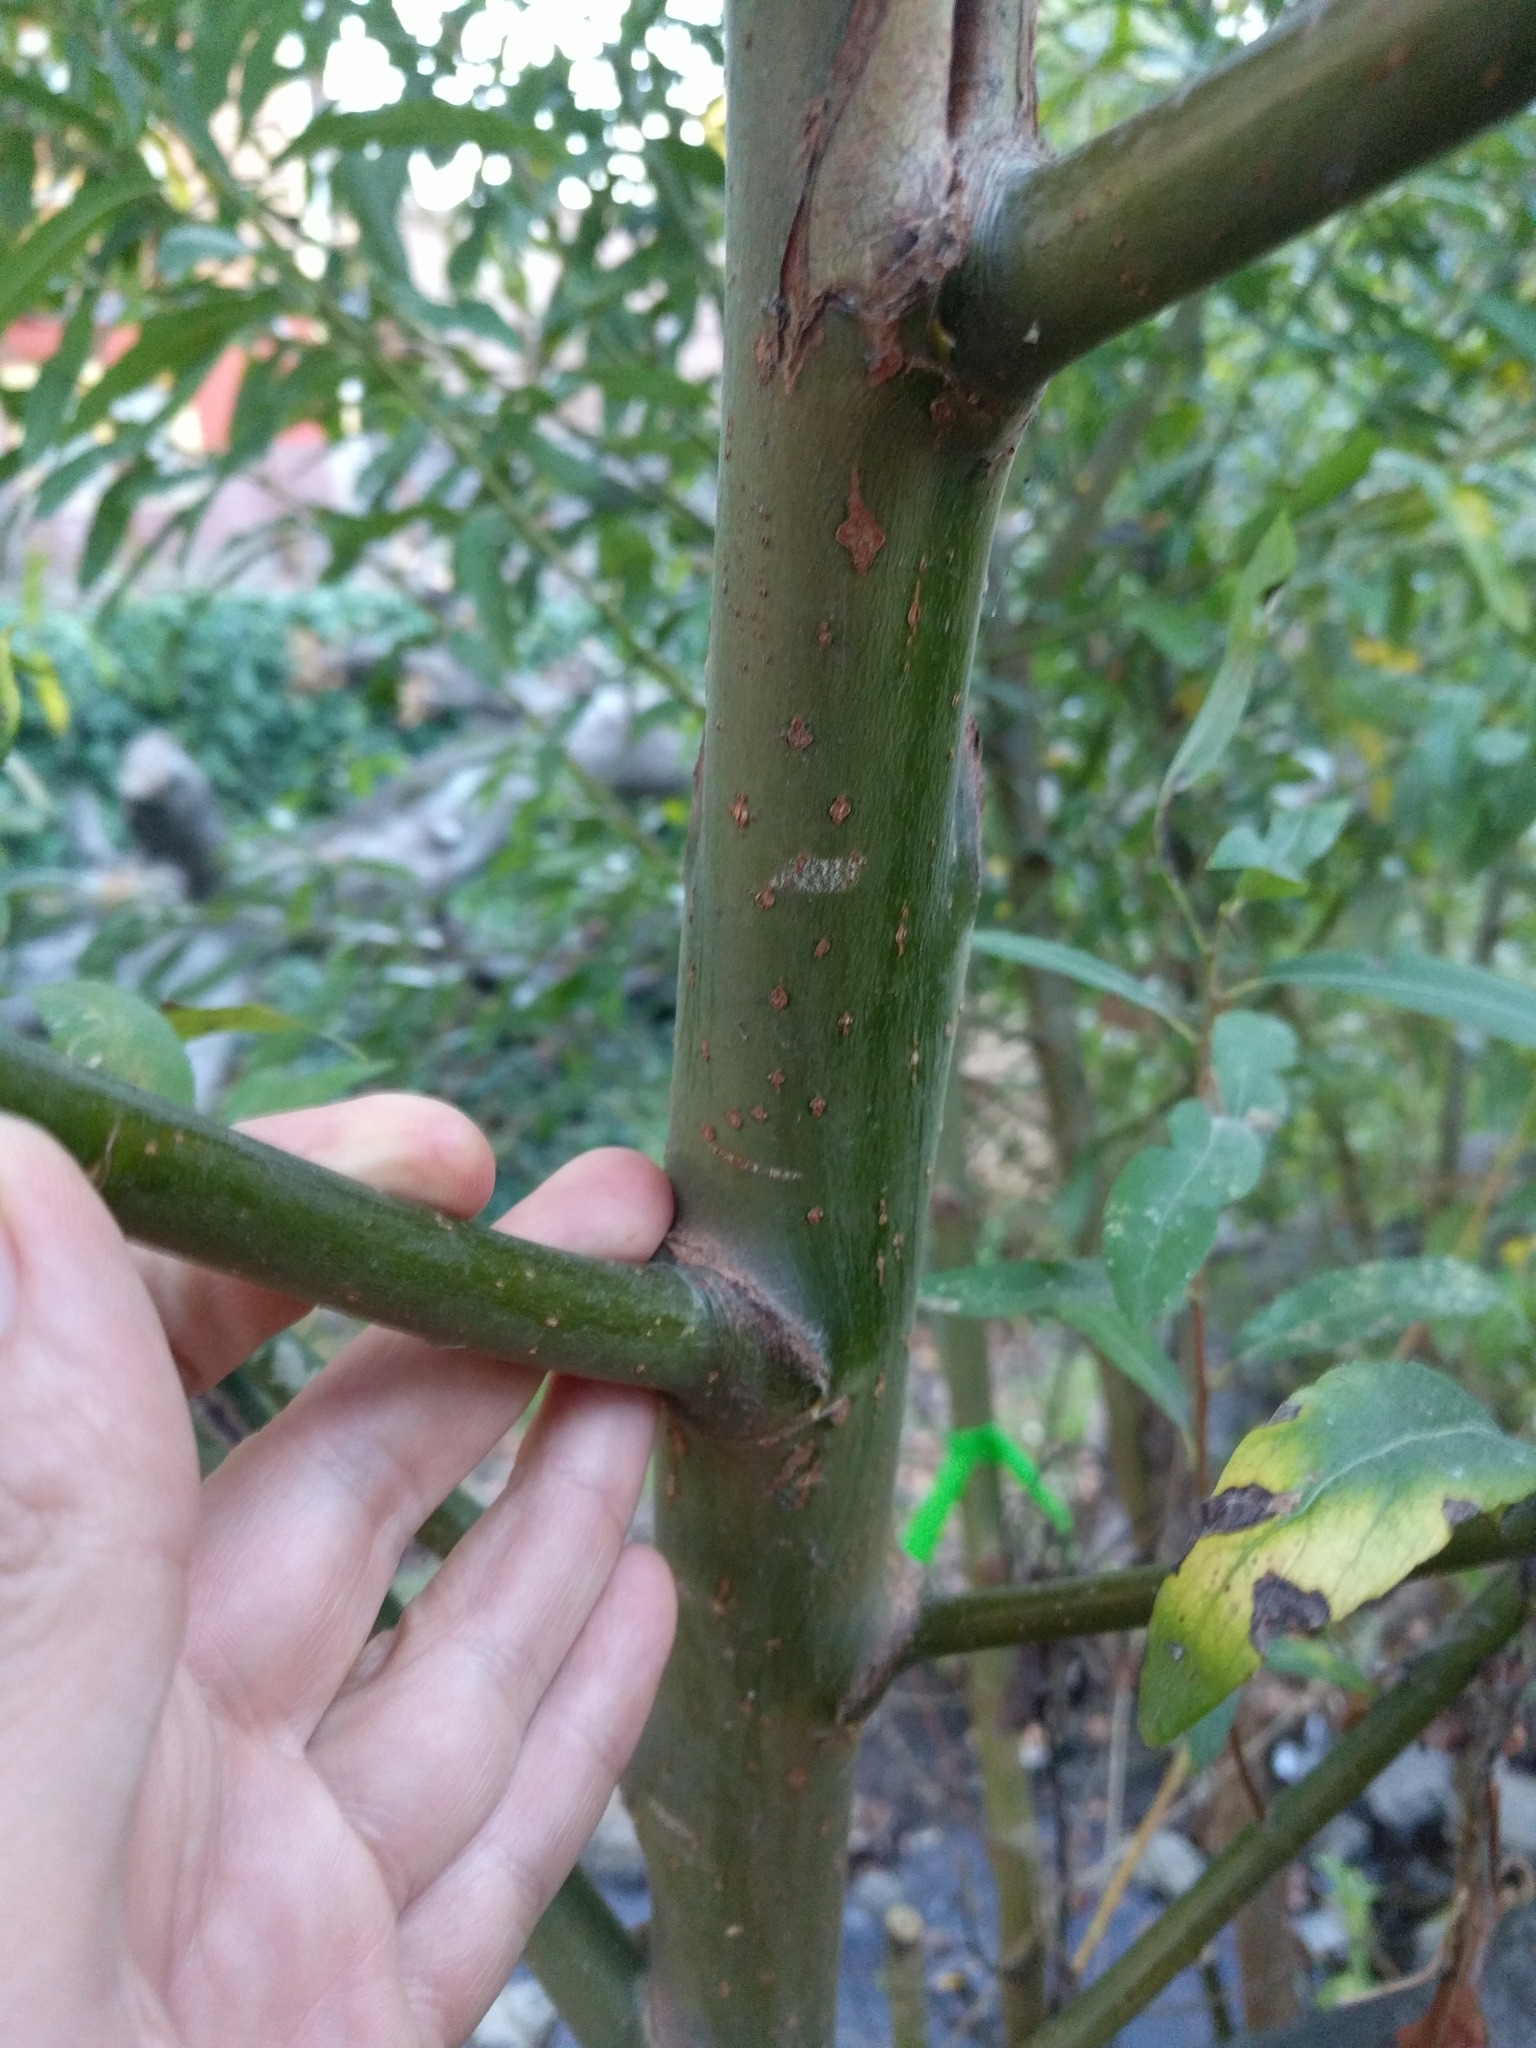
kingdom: Plantae
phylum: Tracheophyta
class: Magnoliopsida
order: Malpighiales
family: Salicaceae
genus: Salix
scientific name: Salix lasiolepis
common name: Arroyo willow
